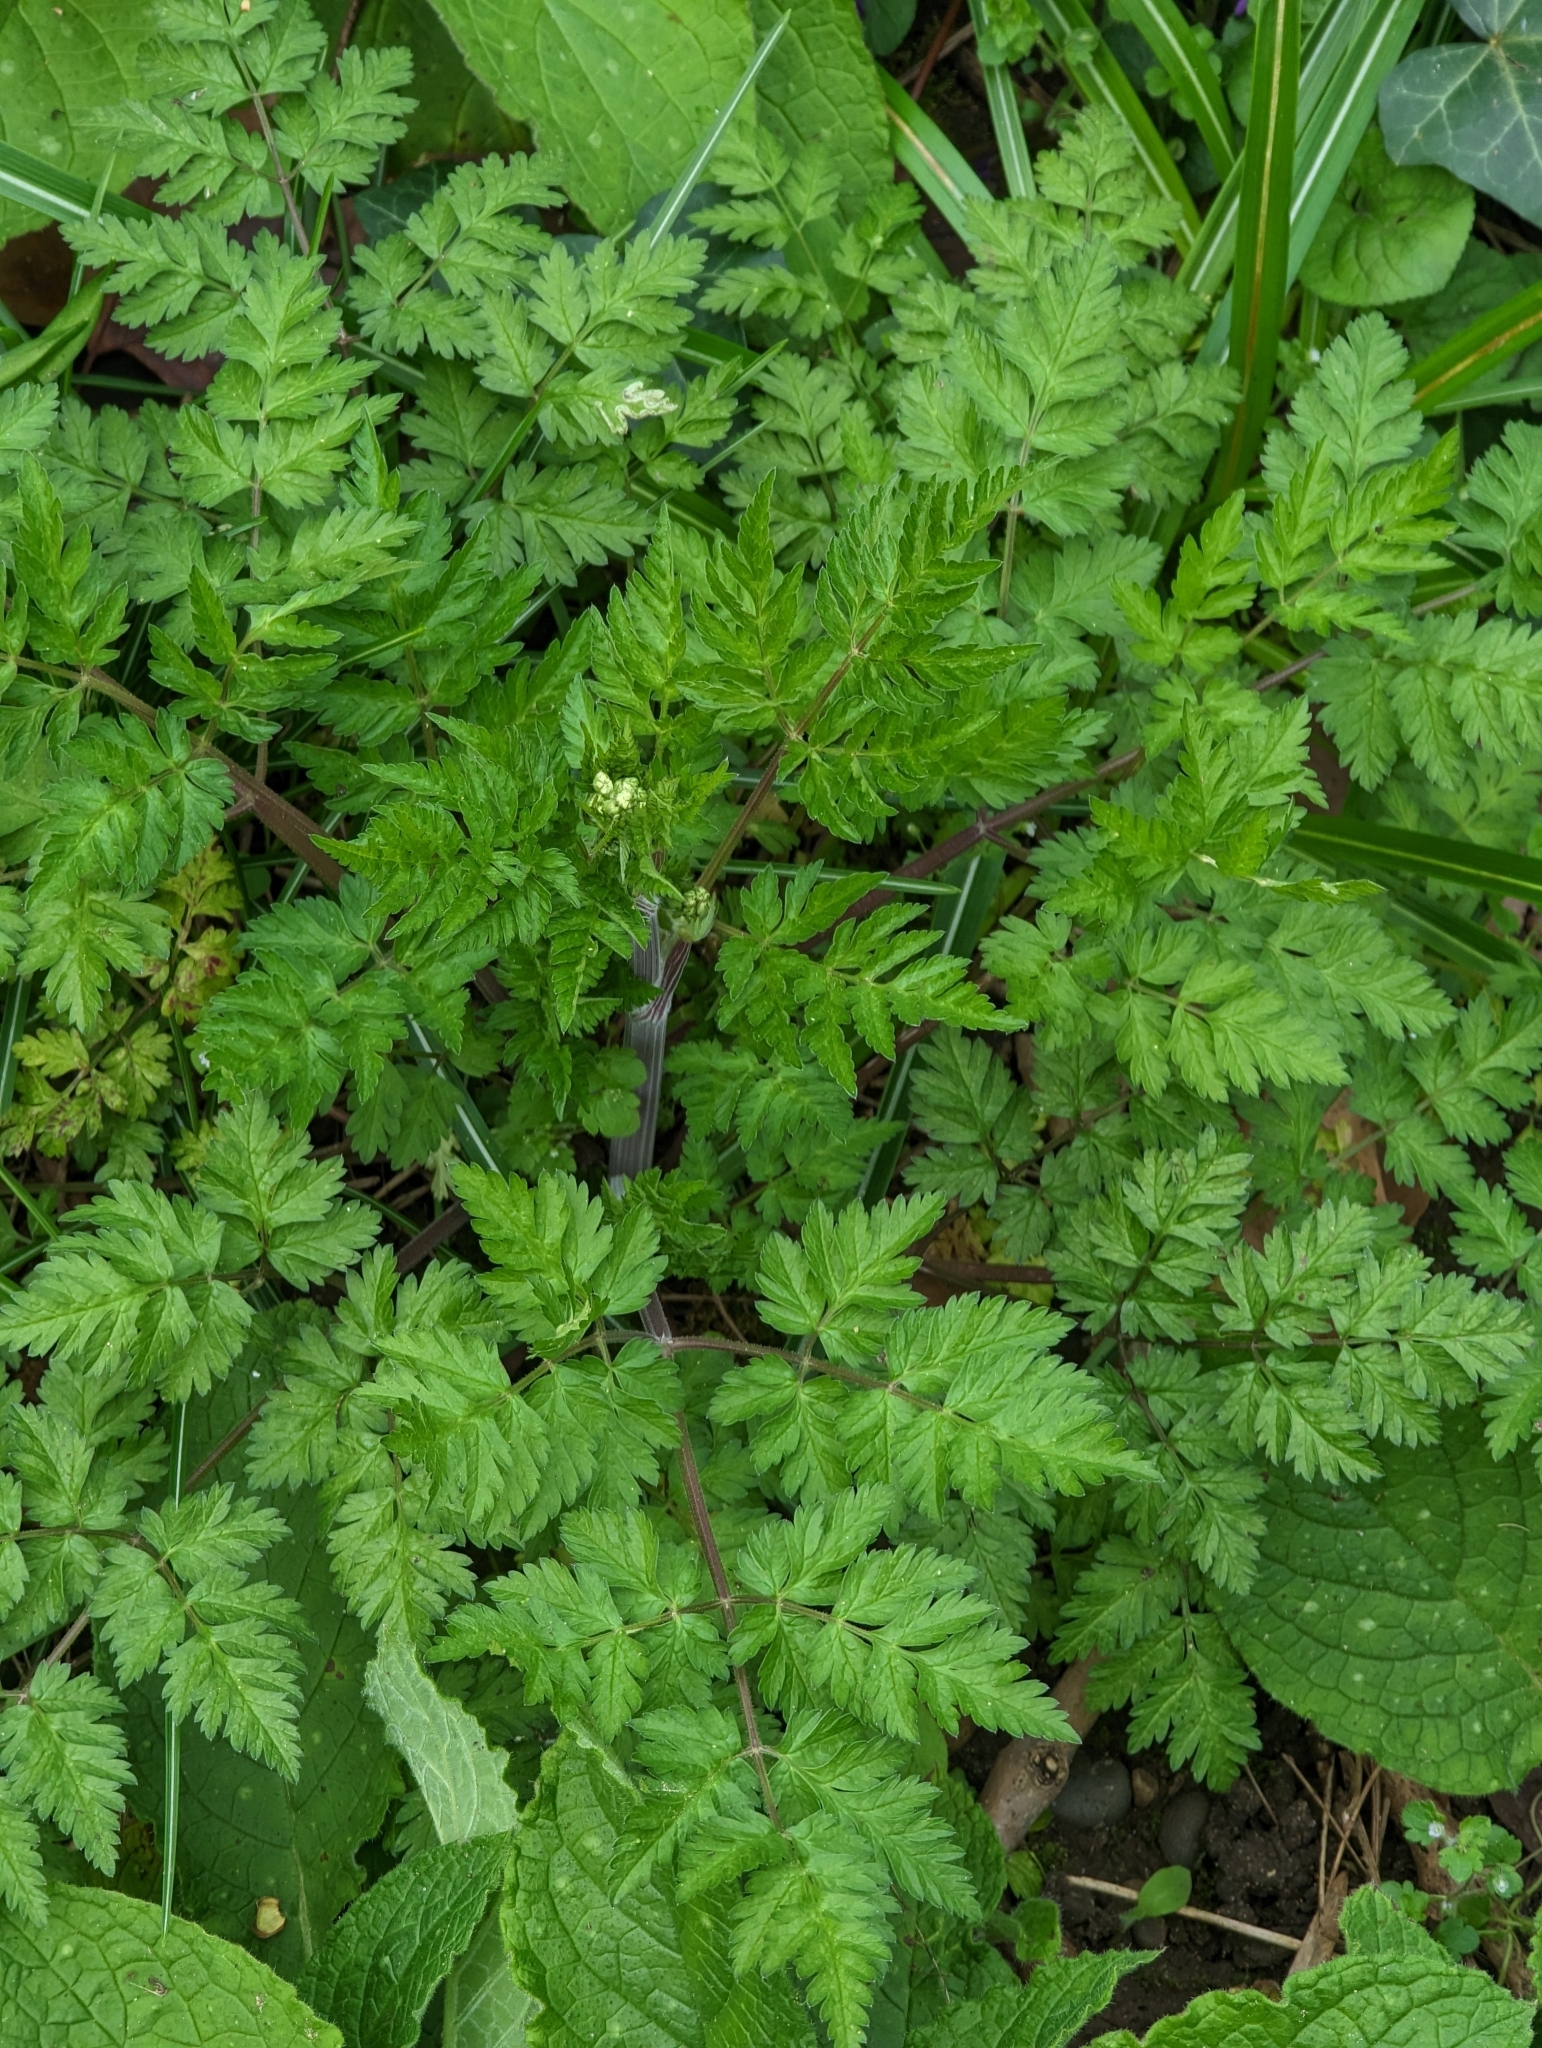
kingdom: Plantae
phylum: Tracheophyta
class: Magnoliopsida
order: Apiales
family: Apiaceae
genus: Anthriscus
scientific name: Anthriscus sylvestris
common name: Cow parsley
